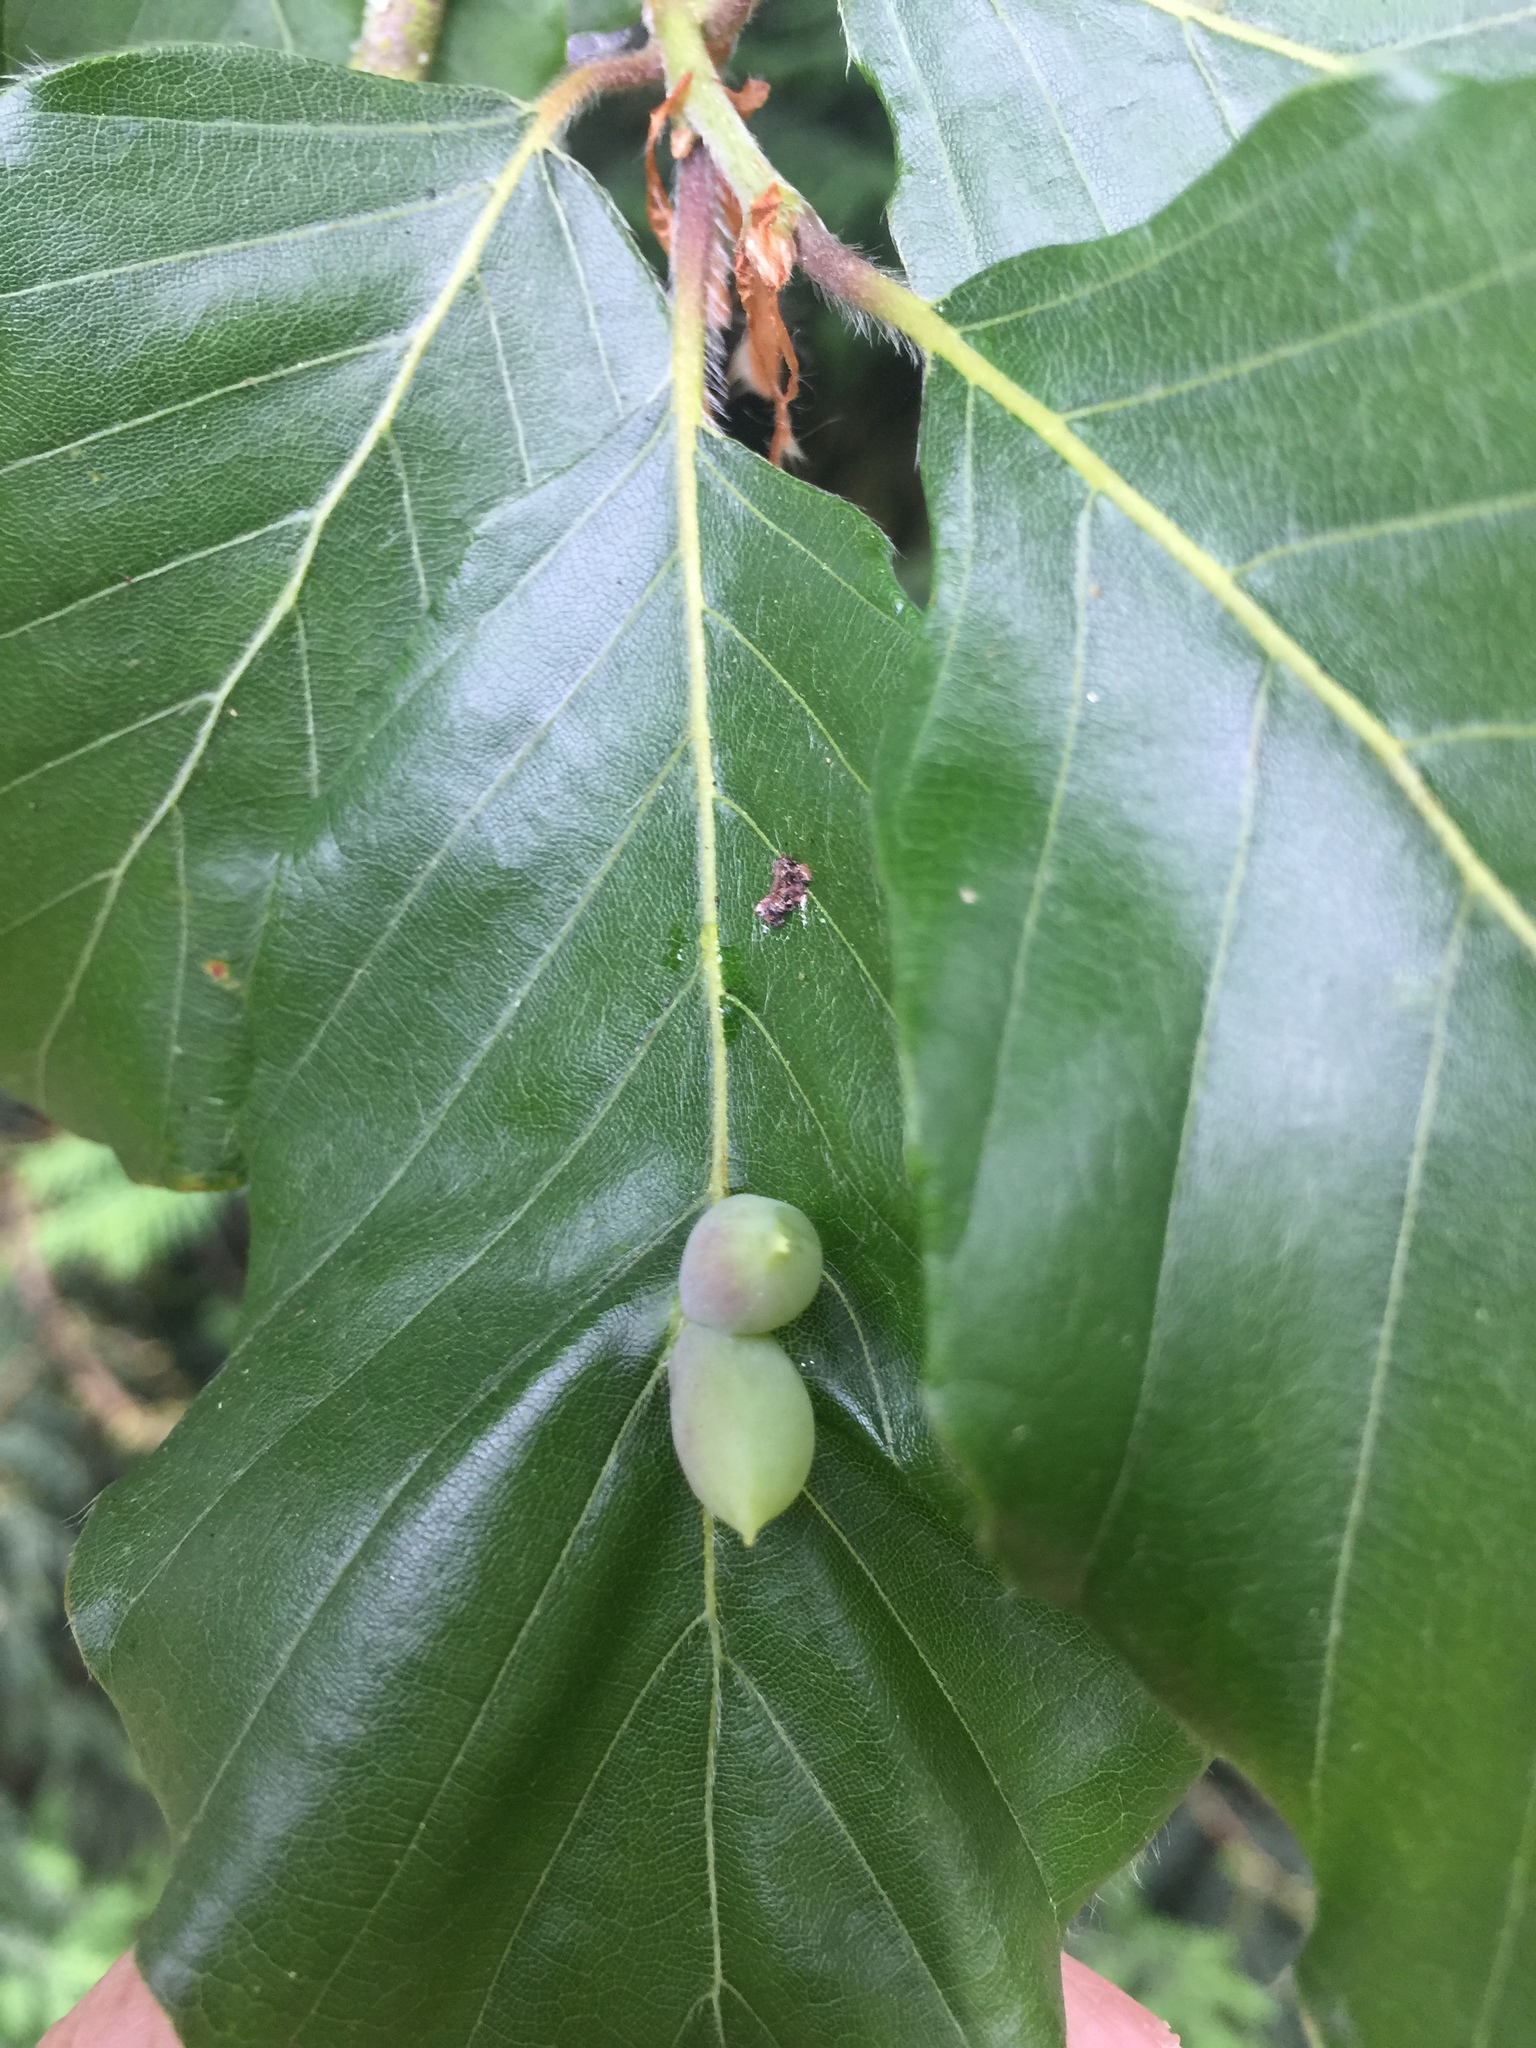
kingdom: Animalia
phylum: Arthropoda
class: Insecta
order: Diptera
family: Cecidomyiidae
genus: Mikiola
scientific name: Mikiola fagi
